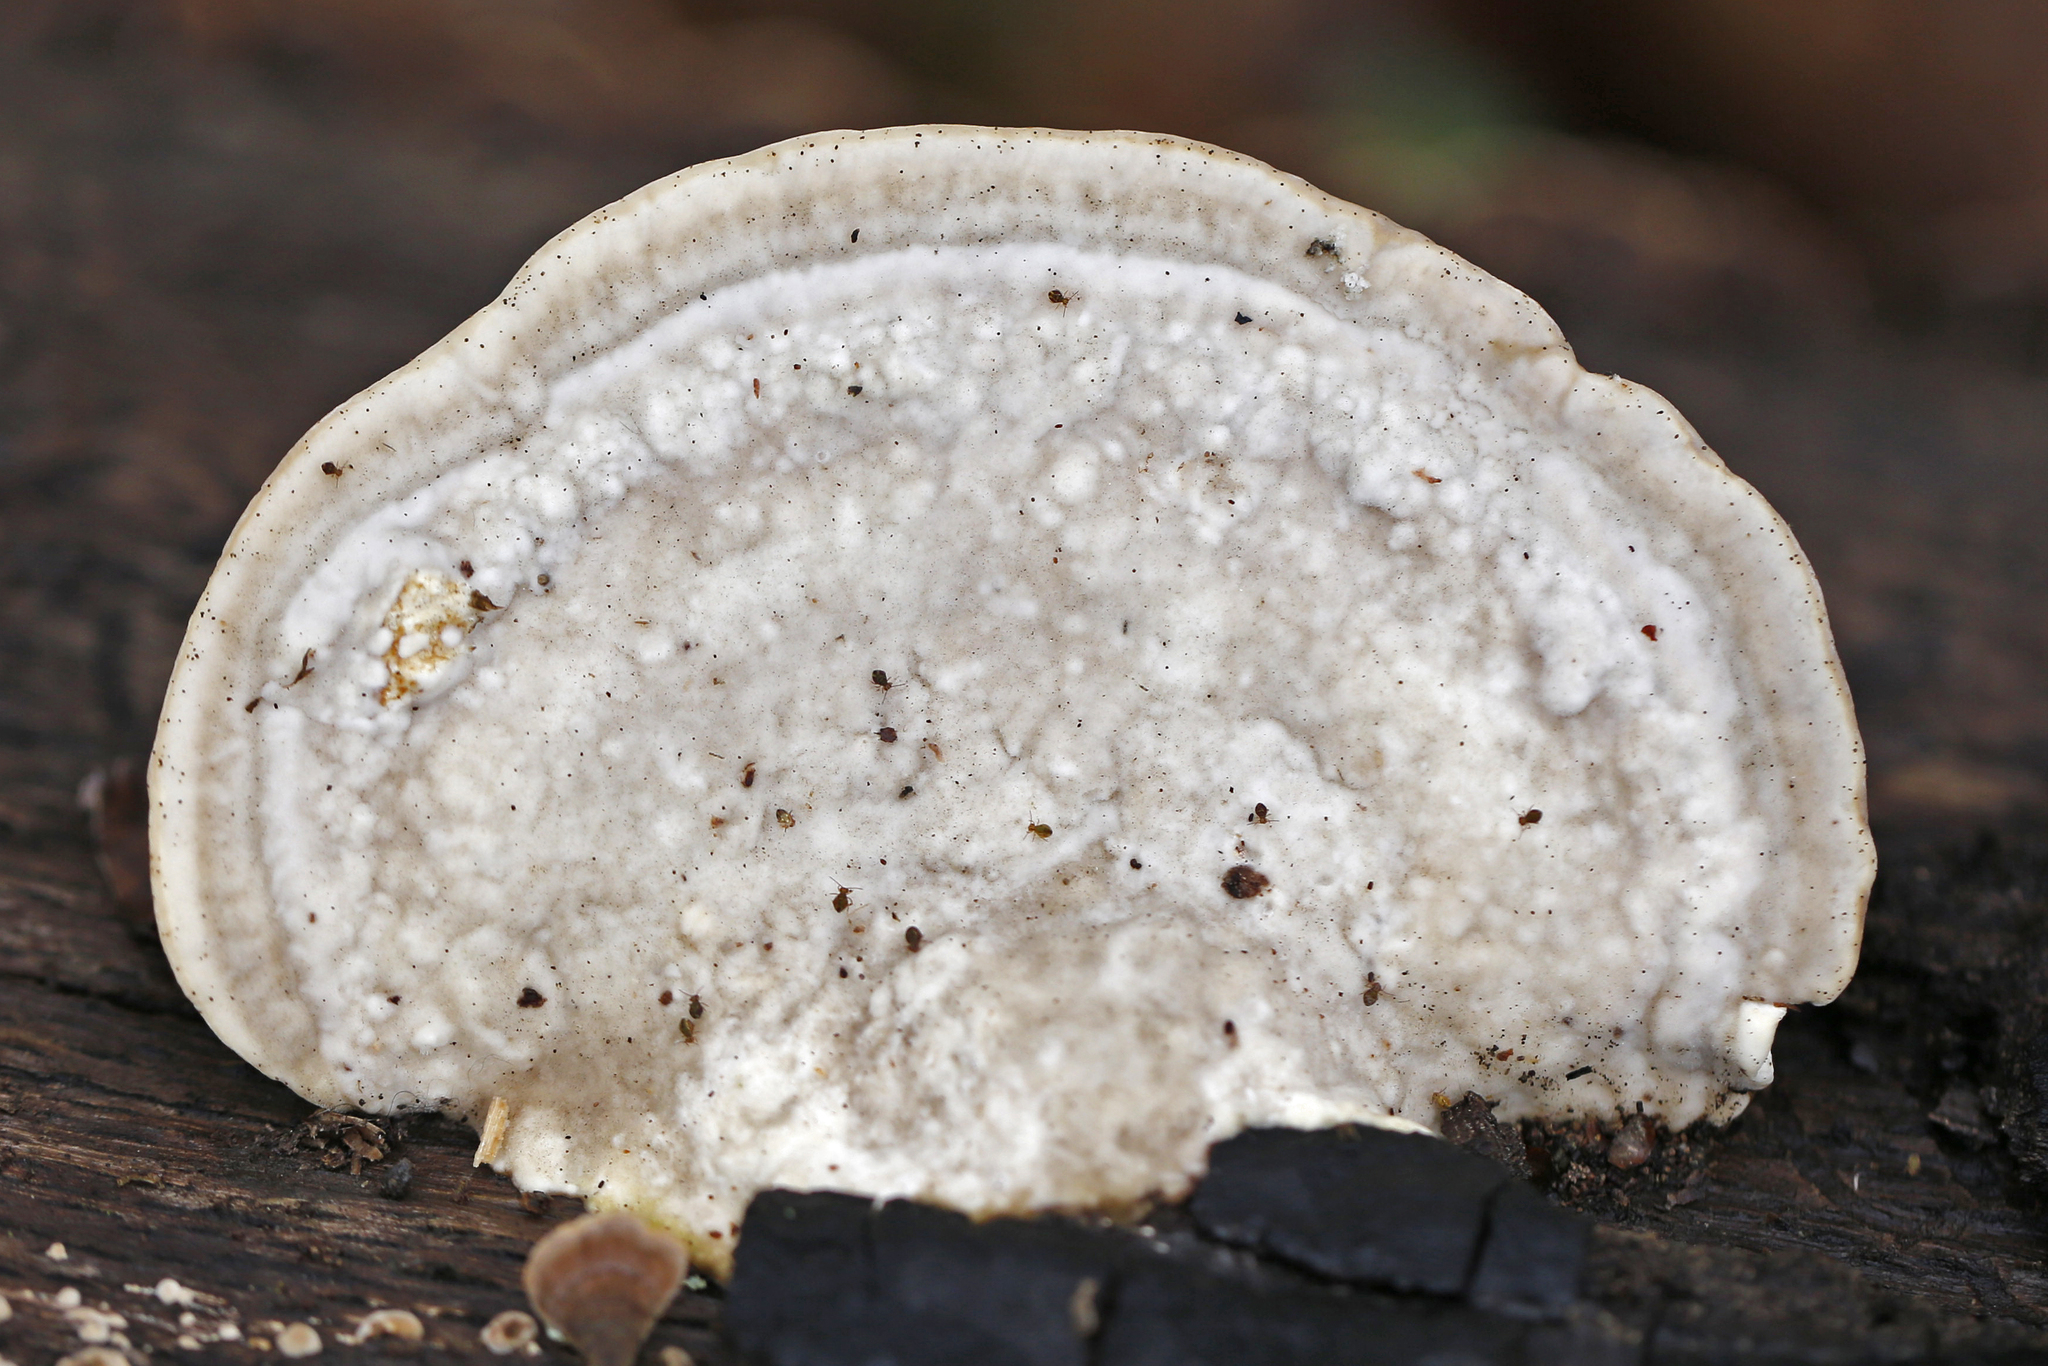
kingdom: Fungi
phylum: Basidiomycota
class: Agaricomycetes
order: Polyporales
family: Polyporaceae
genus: Trametes
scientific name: Trametes gibbosa
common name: Lumpy bracket
